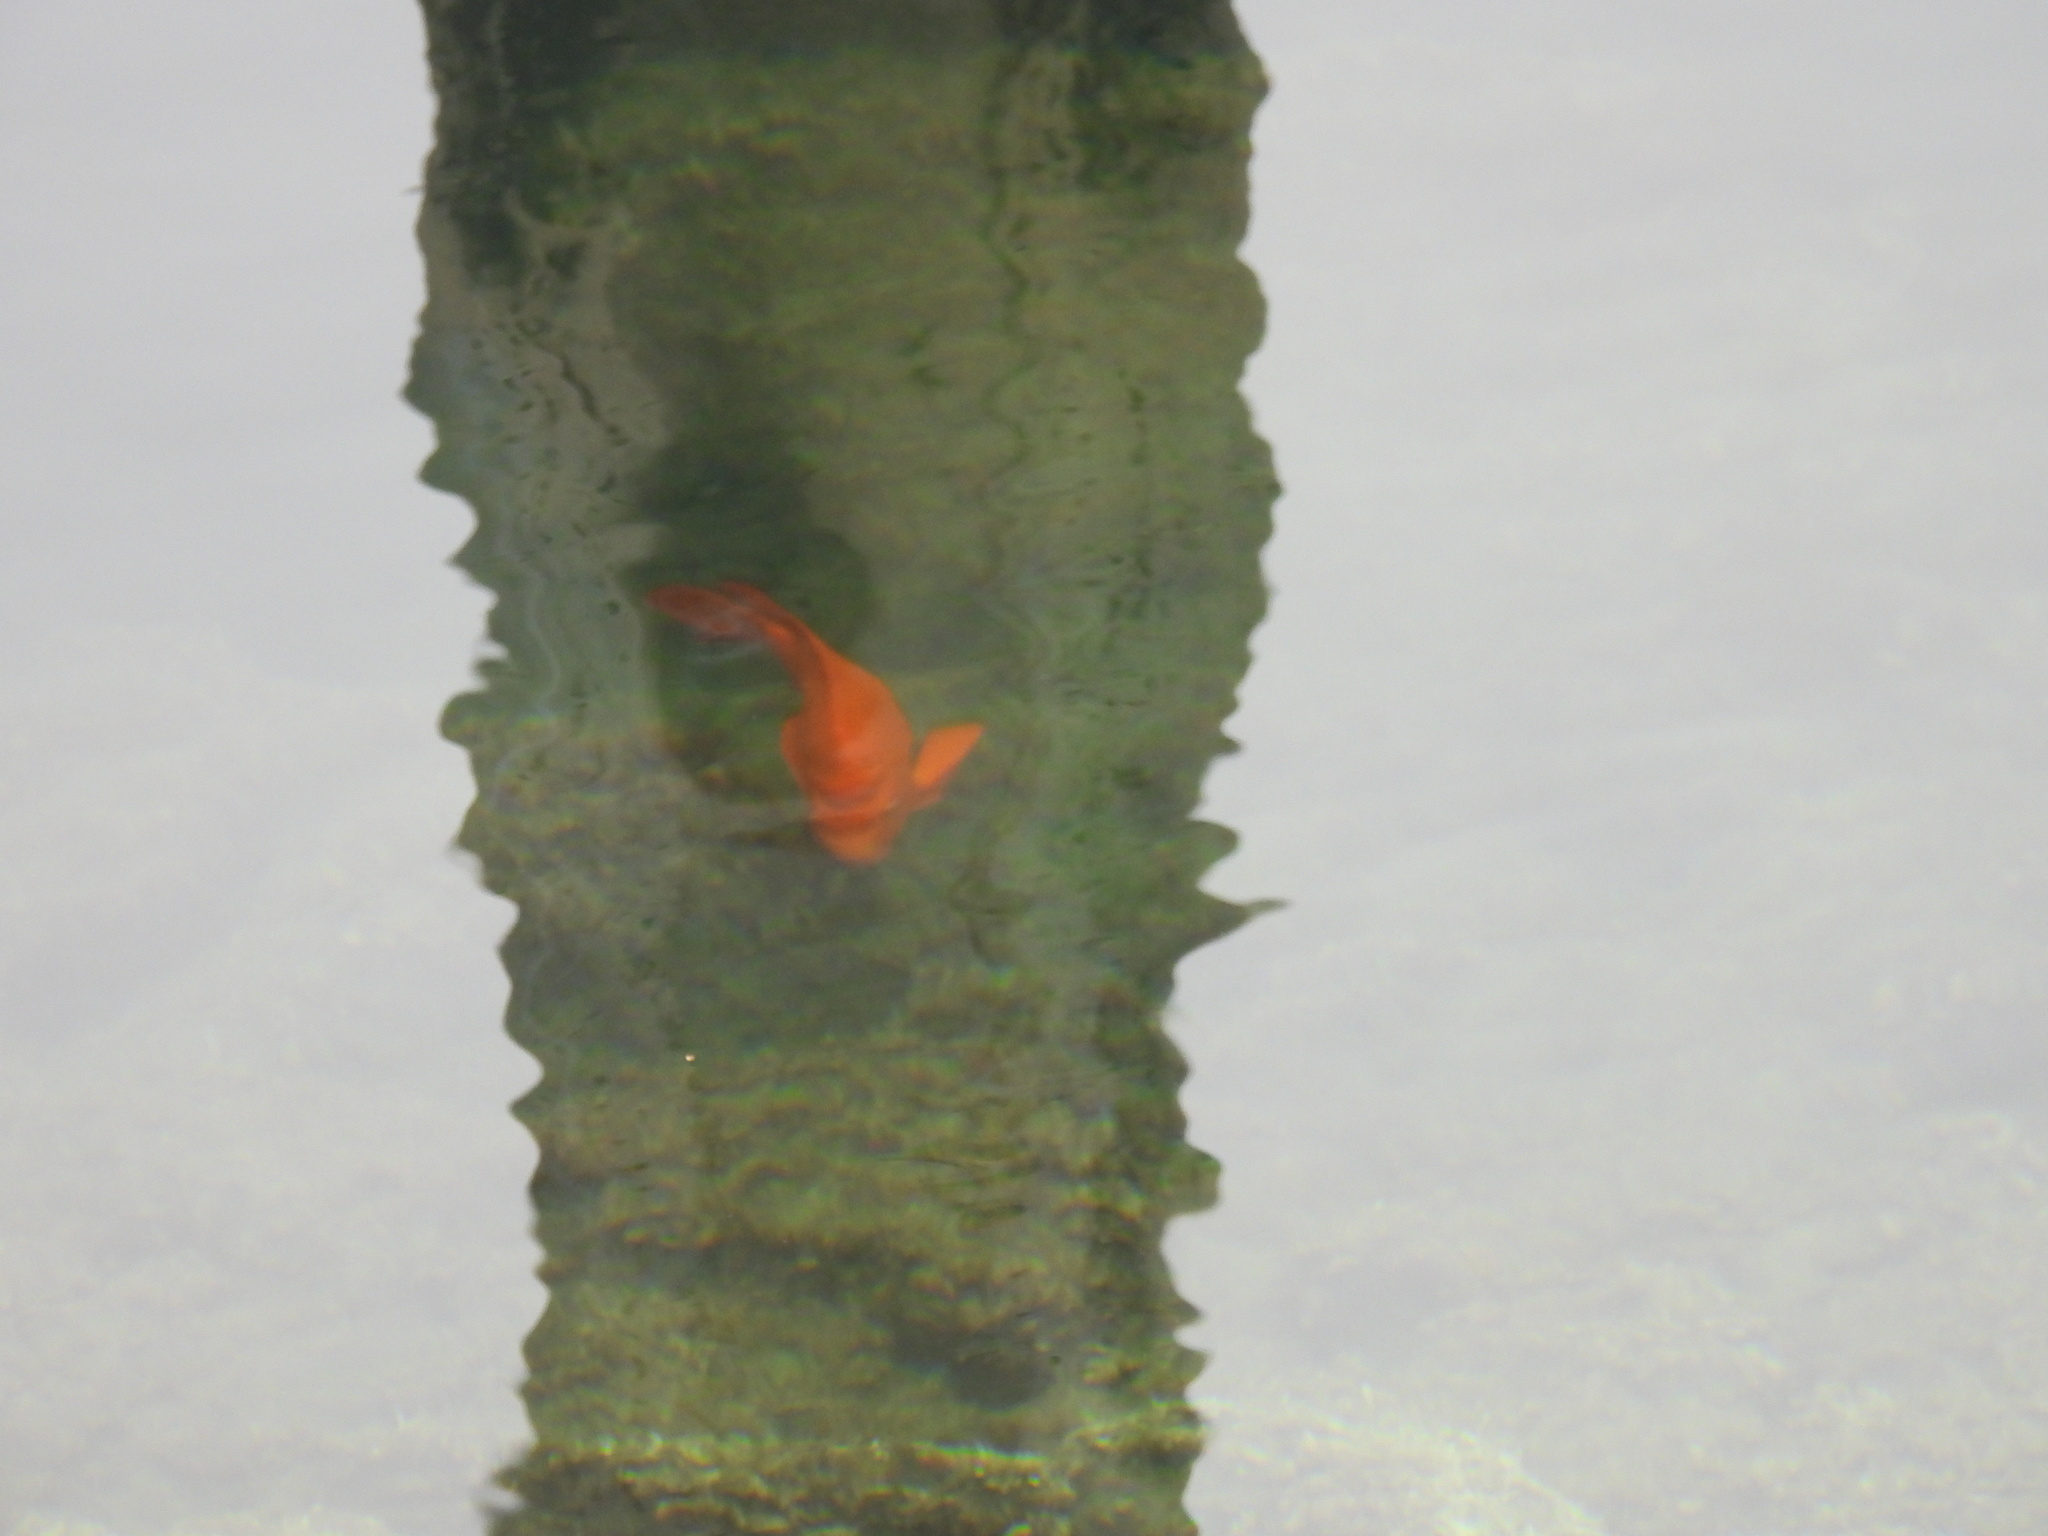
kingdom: Animalia
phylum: Chordata
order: Perciformes
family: Pomacentridae
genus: Hypsypops
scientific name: Hypsypops rubicundus
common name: Garibaldi
